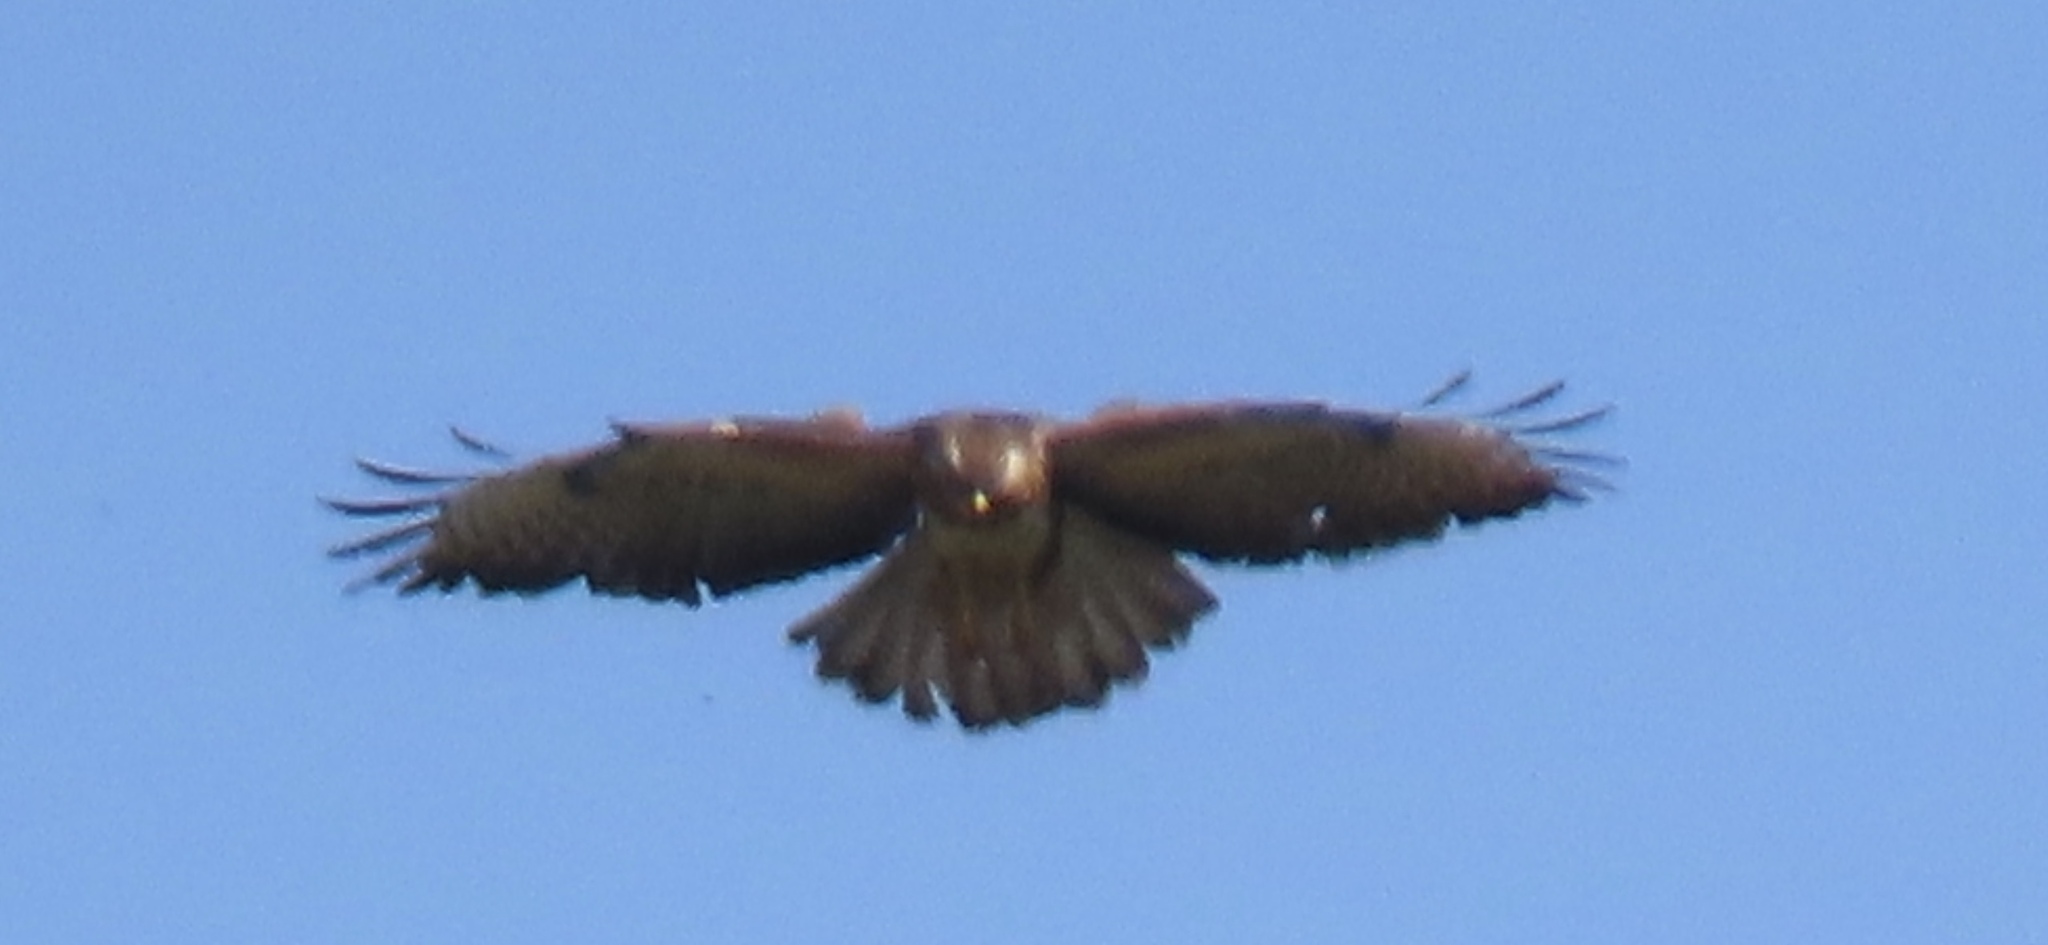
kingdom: Animalia
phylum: Chordata
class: Aves
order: Accipitriformes
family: Accipitridae
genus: Buteo
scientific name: Buteo buteo
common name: Common buzzard
